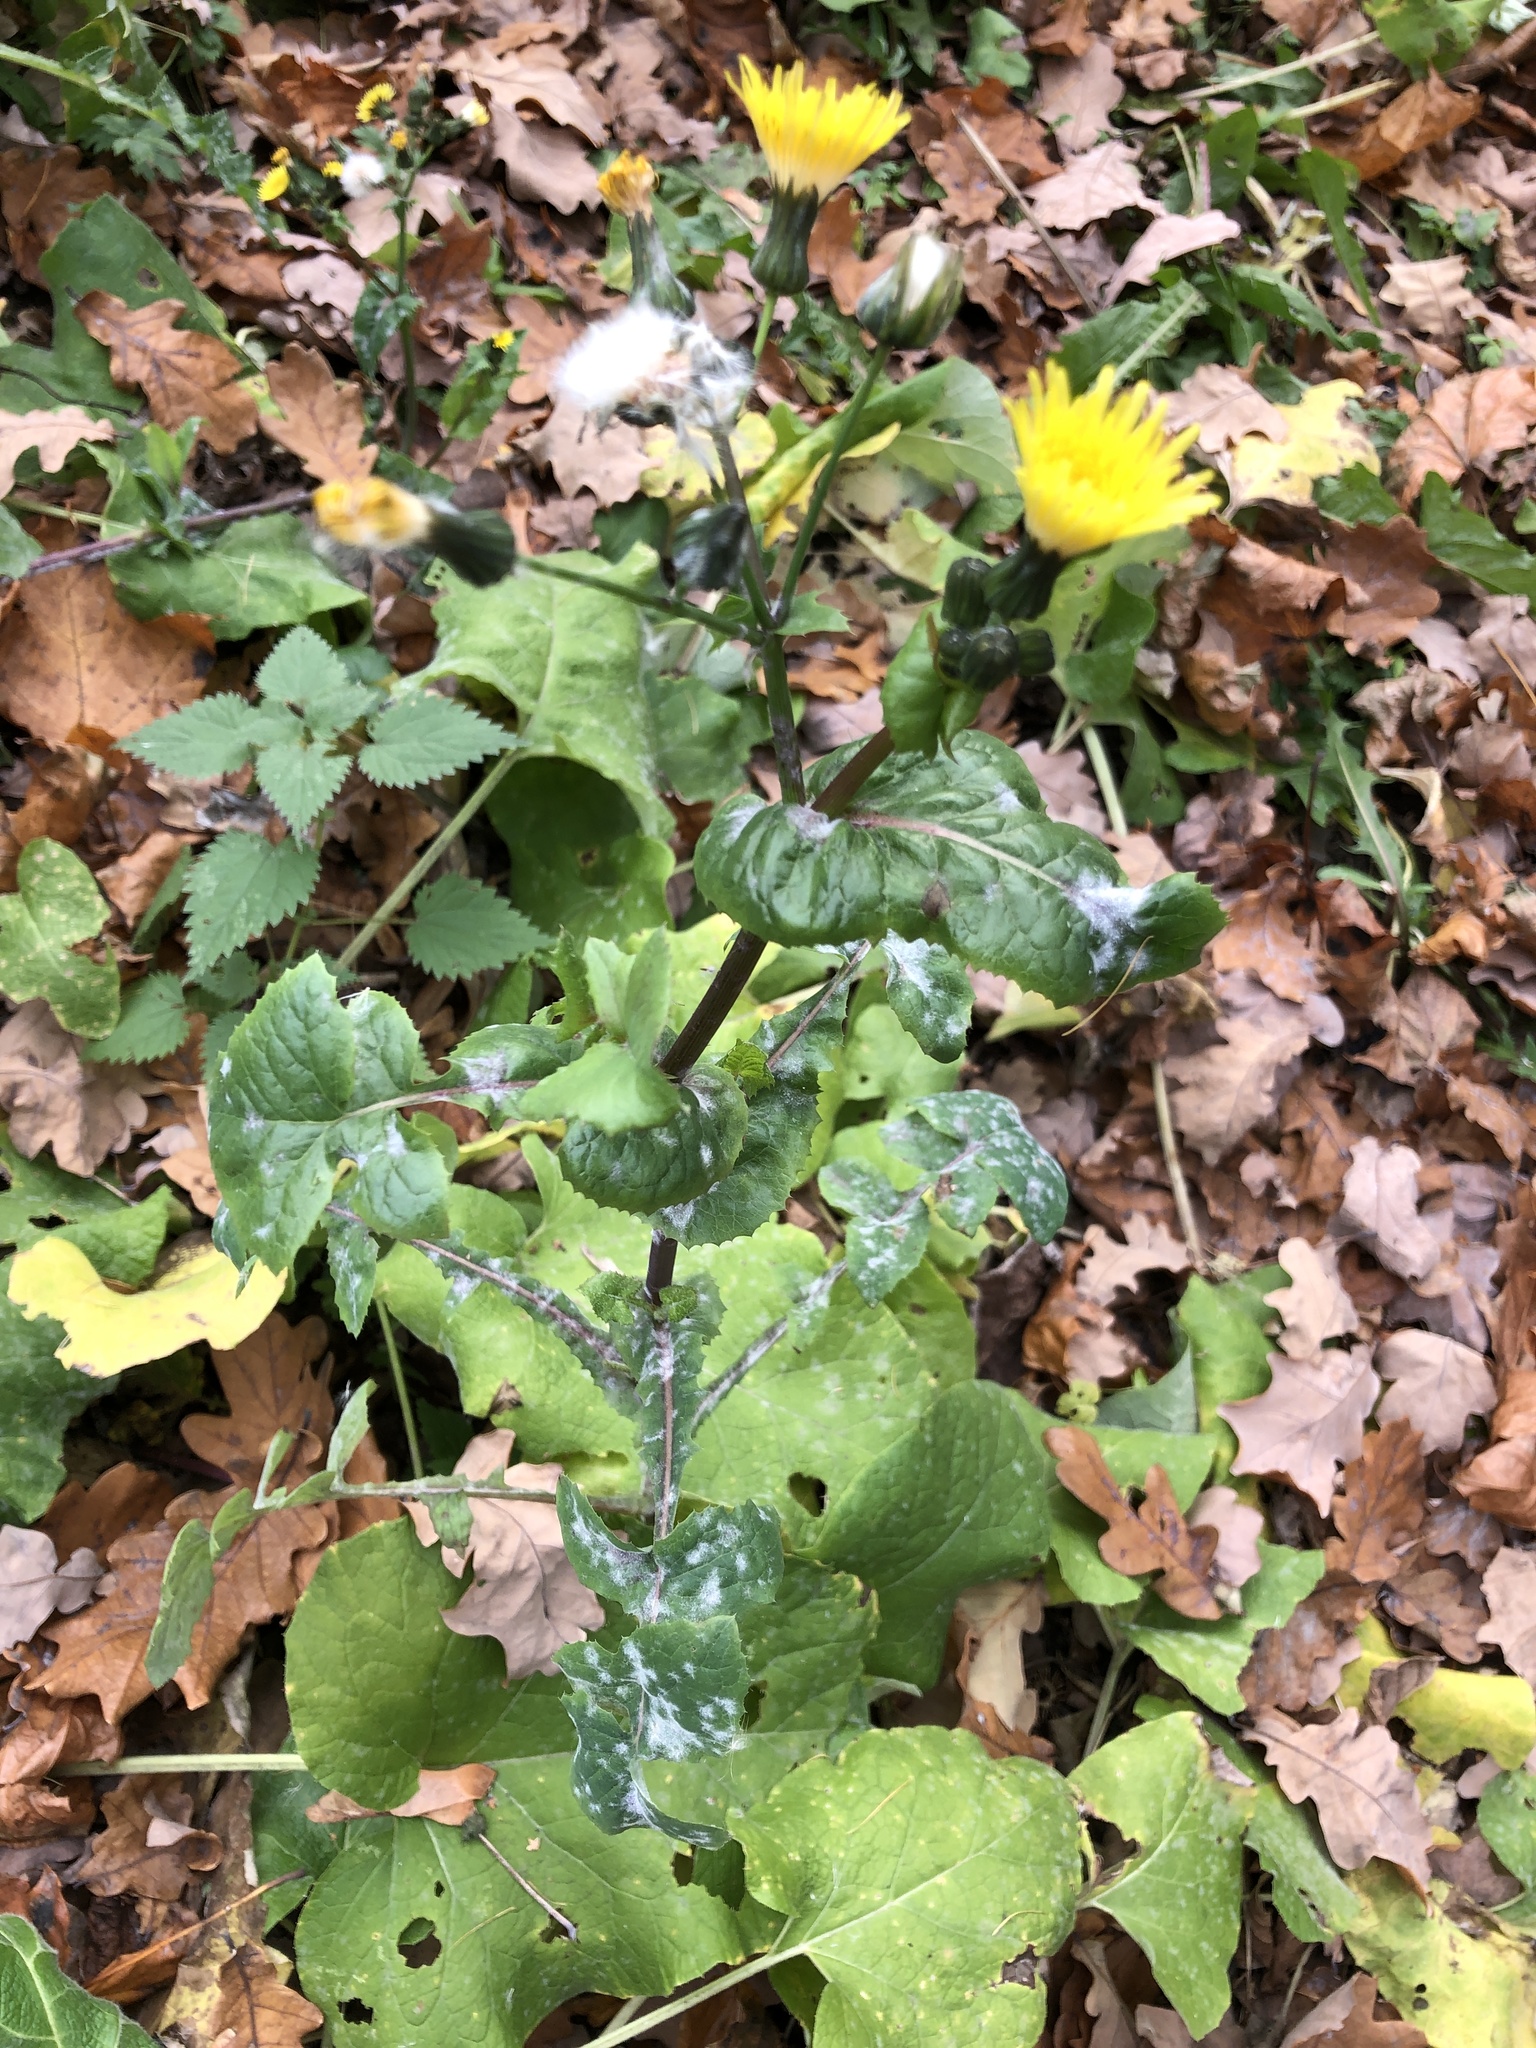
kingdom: Plantae
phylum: Tracheophyta
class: Magnoliopsida
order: Asterales
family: Asteraceae
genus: Sonchus
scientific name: Sonchus oleraceus
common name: Common sowthistle
